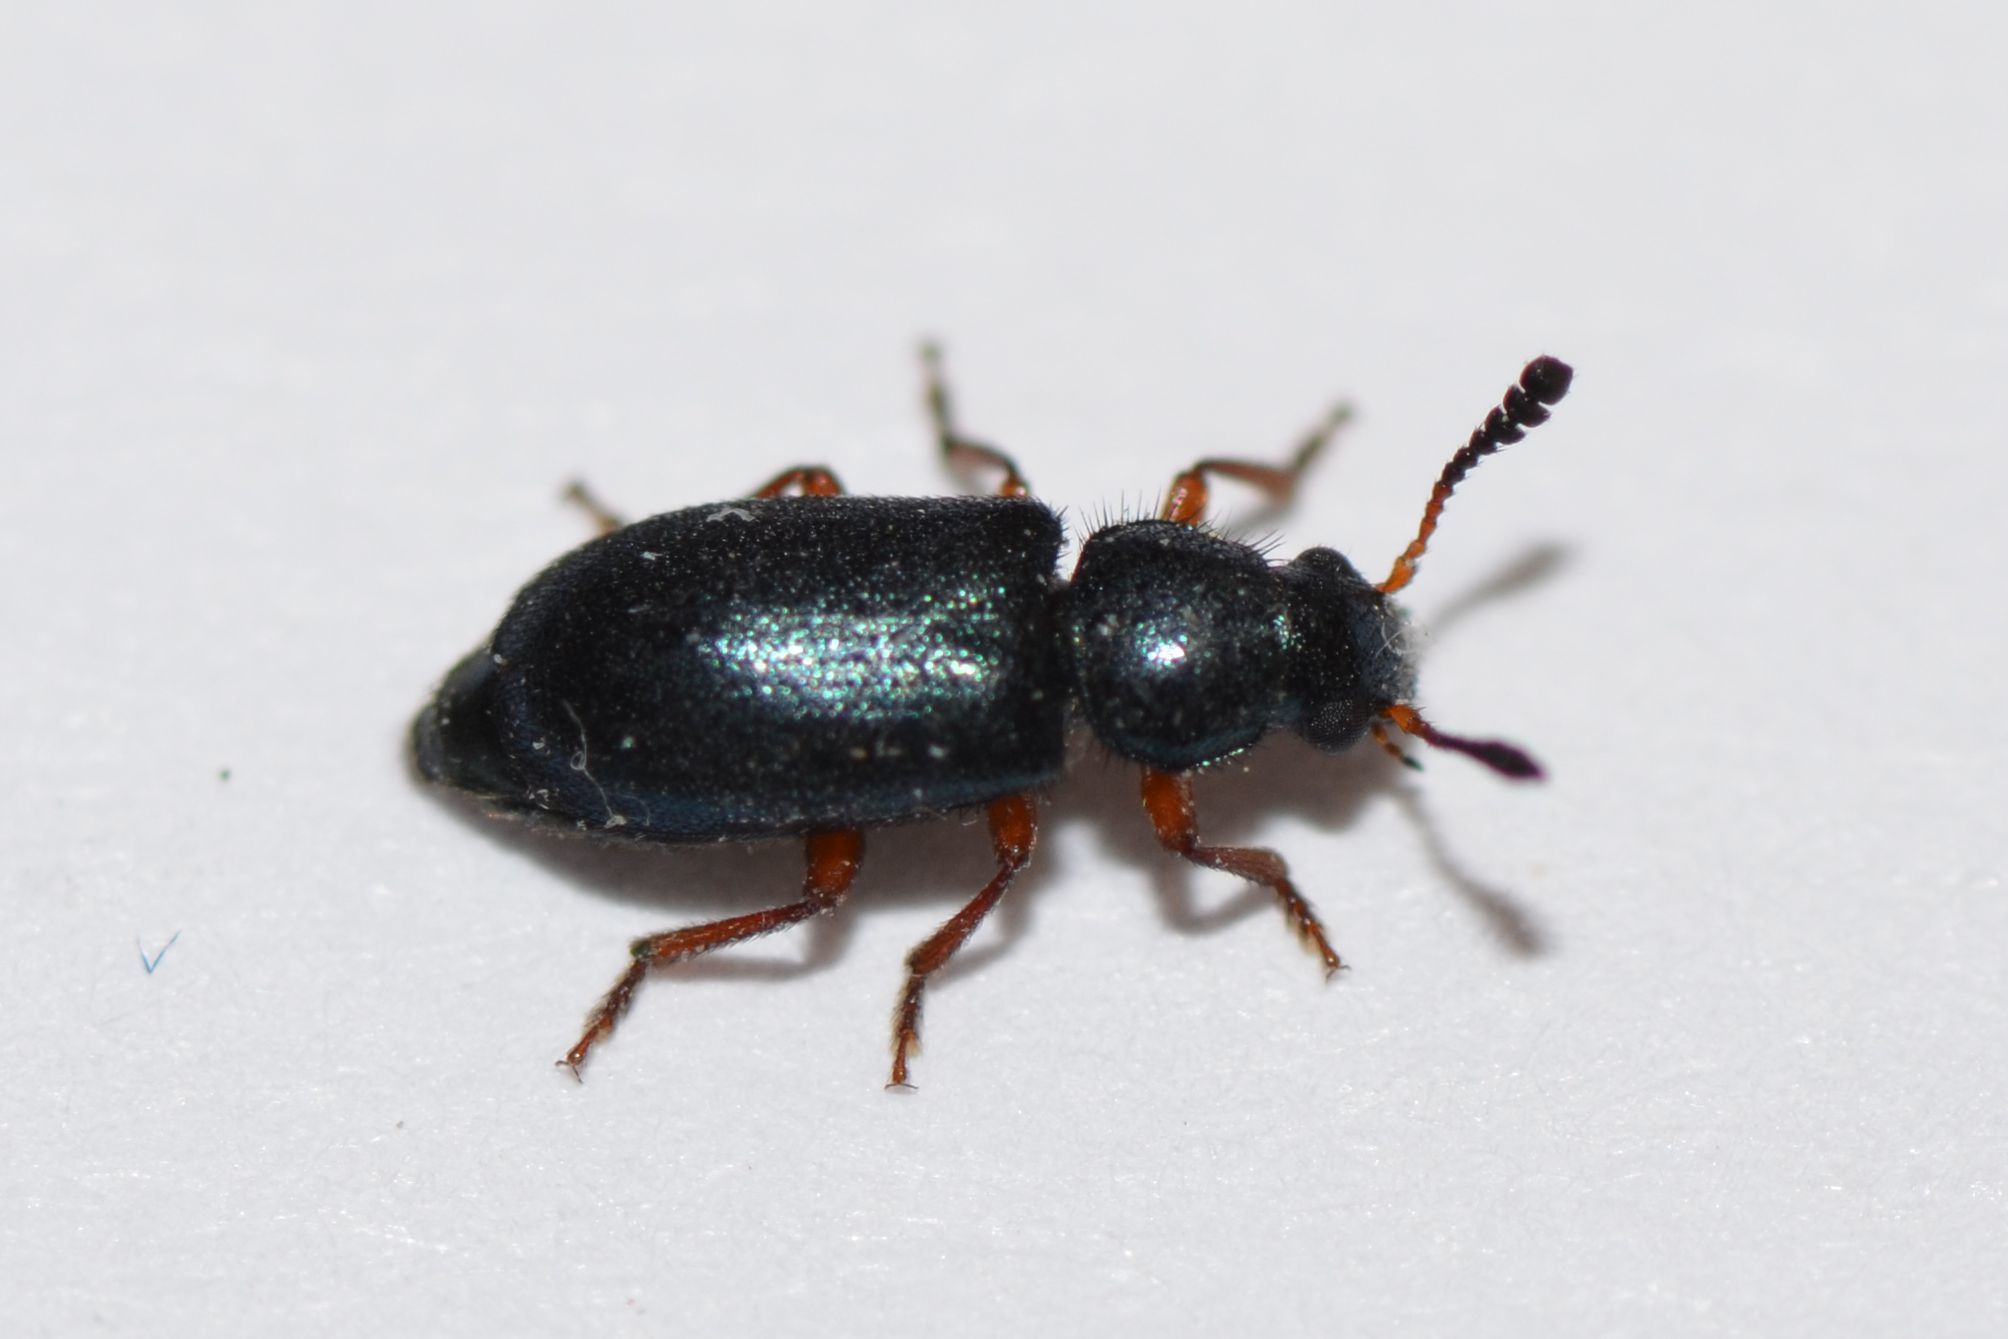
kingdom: Animalia
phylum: Arthropoda
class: Insecta
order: Coleoptera
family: Cleridae
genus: Necrobia
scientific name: Necrobia rufipes
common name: Red-legged ham beetle
